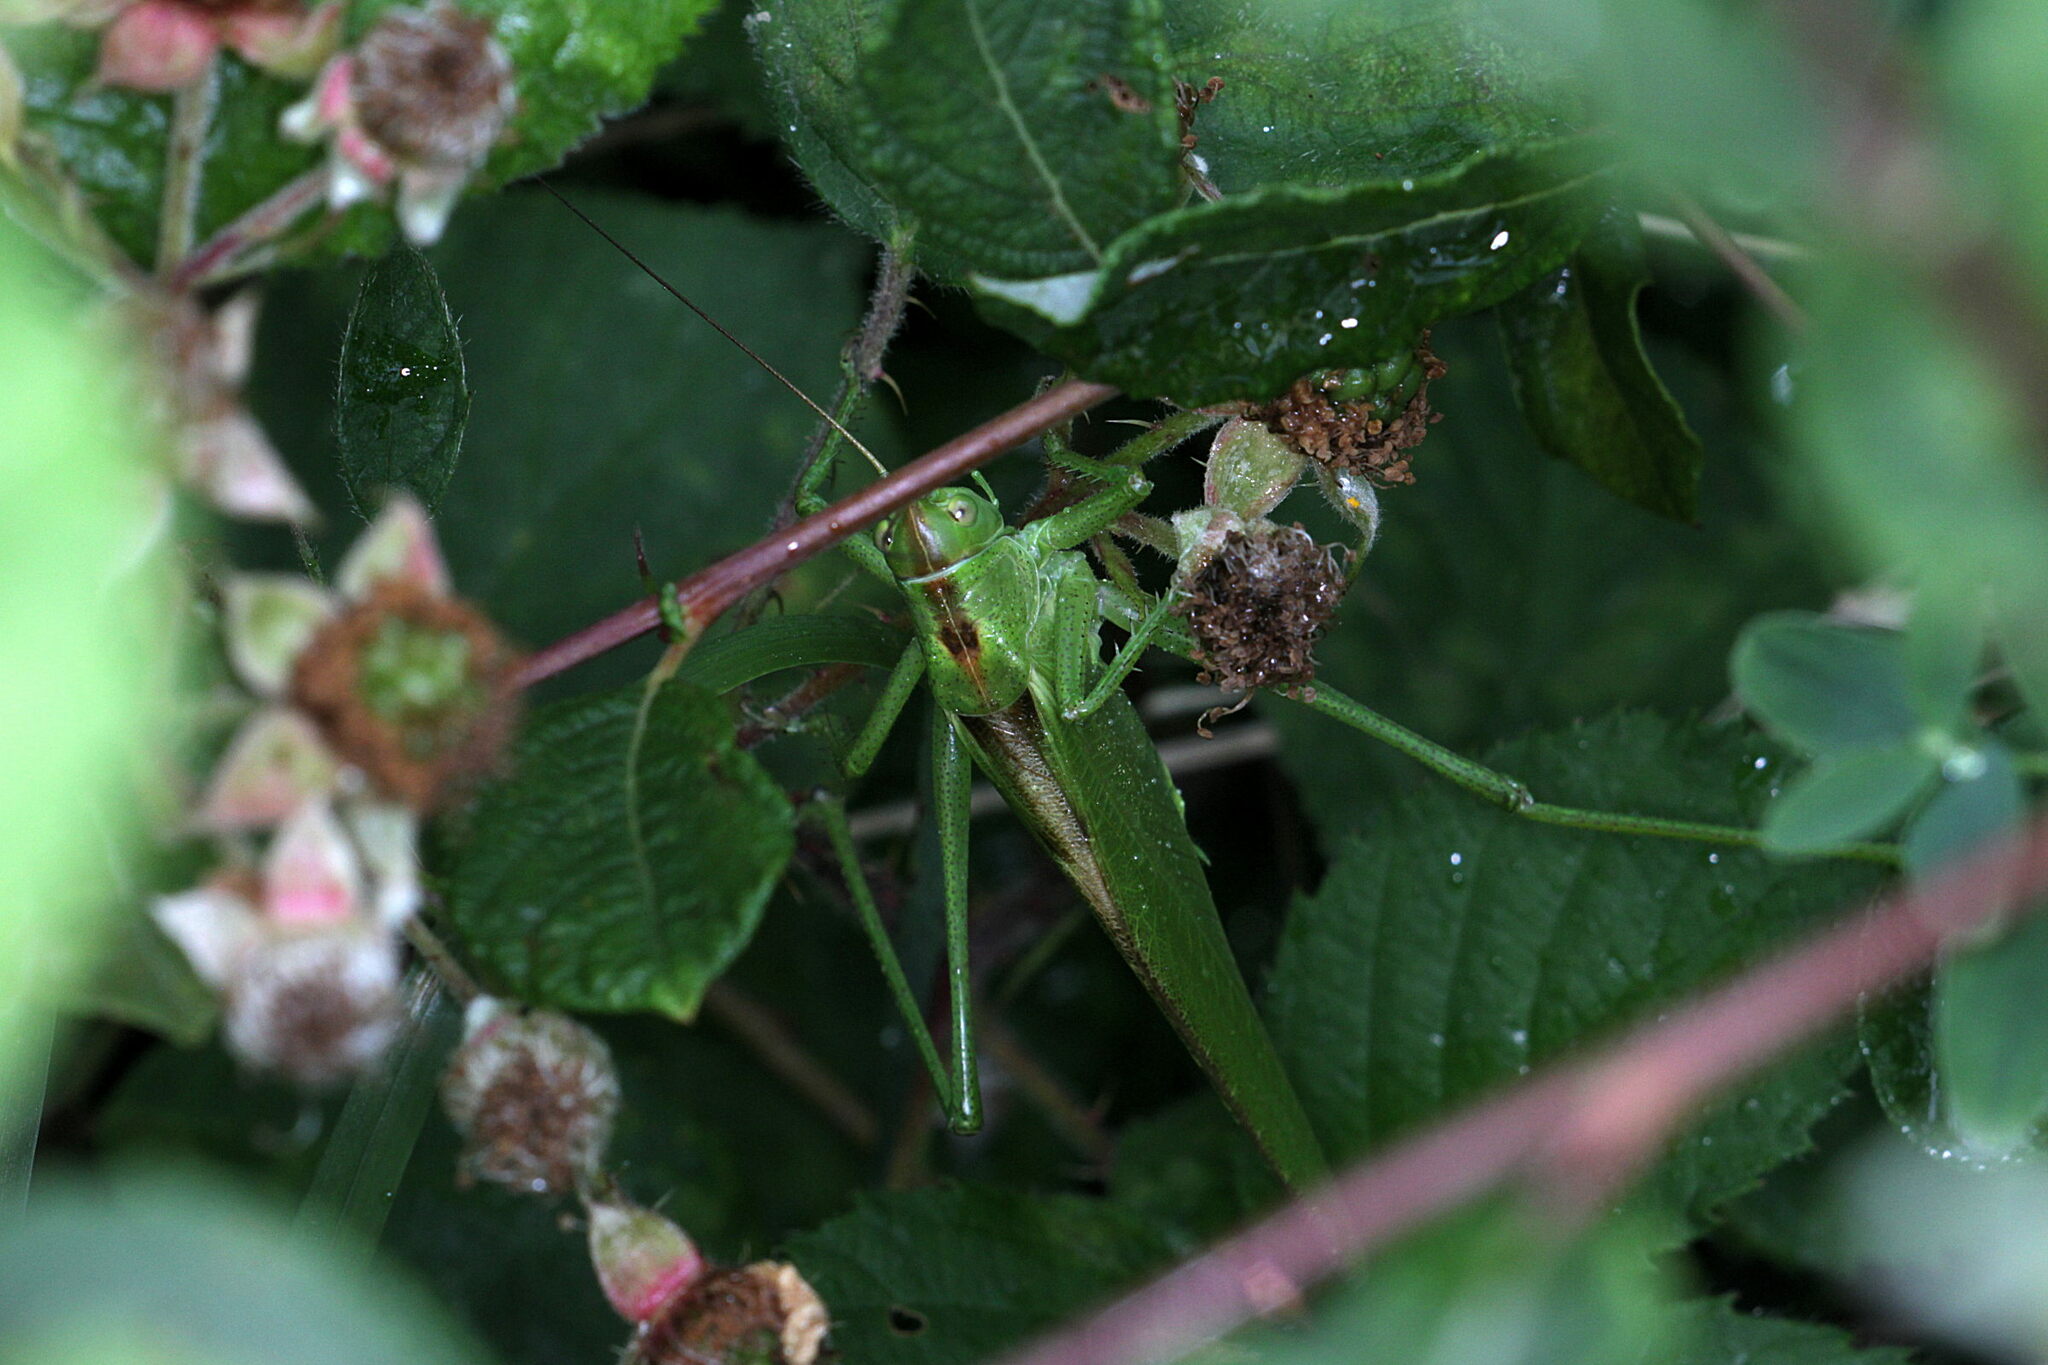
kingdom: Animalia
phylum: Arthropoda
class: Insecta
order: Orthoptera
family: Tettigoniidae
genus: Tettigonia
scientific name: Tettigonia viridissima
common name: Great green bush-cricket
